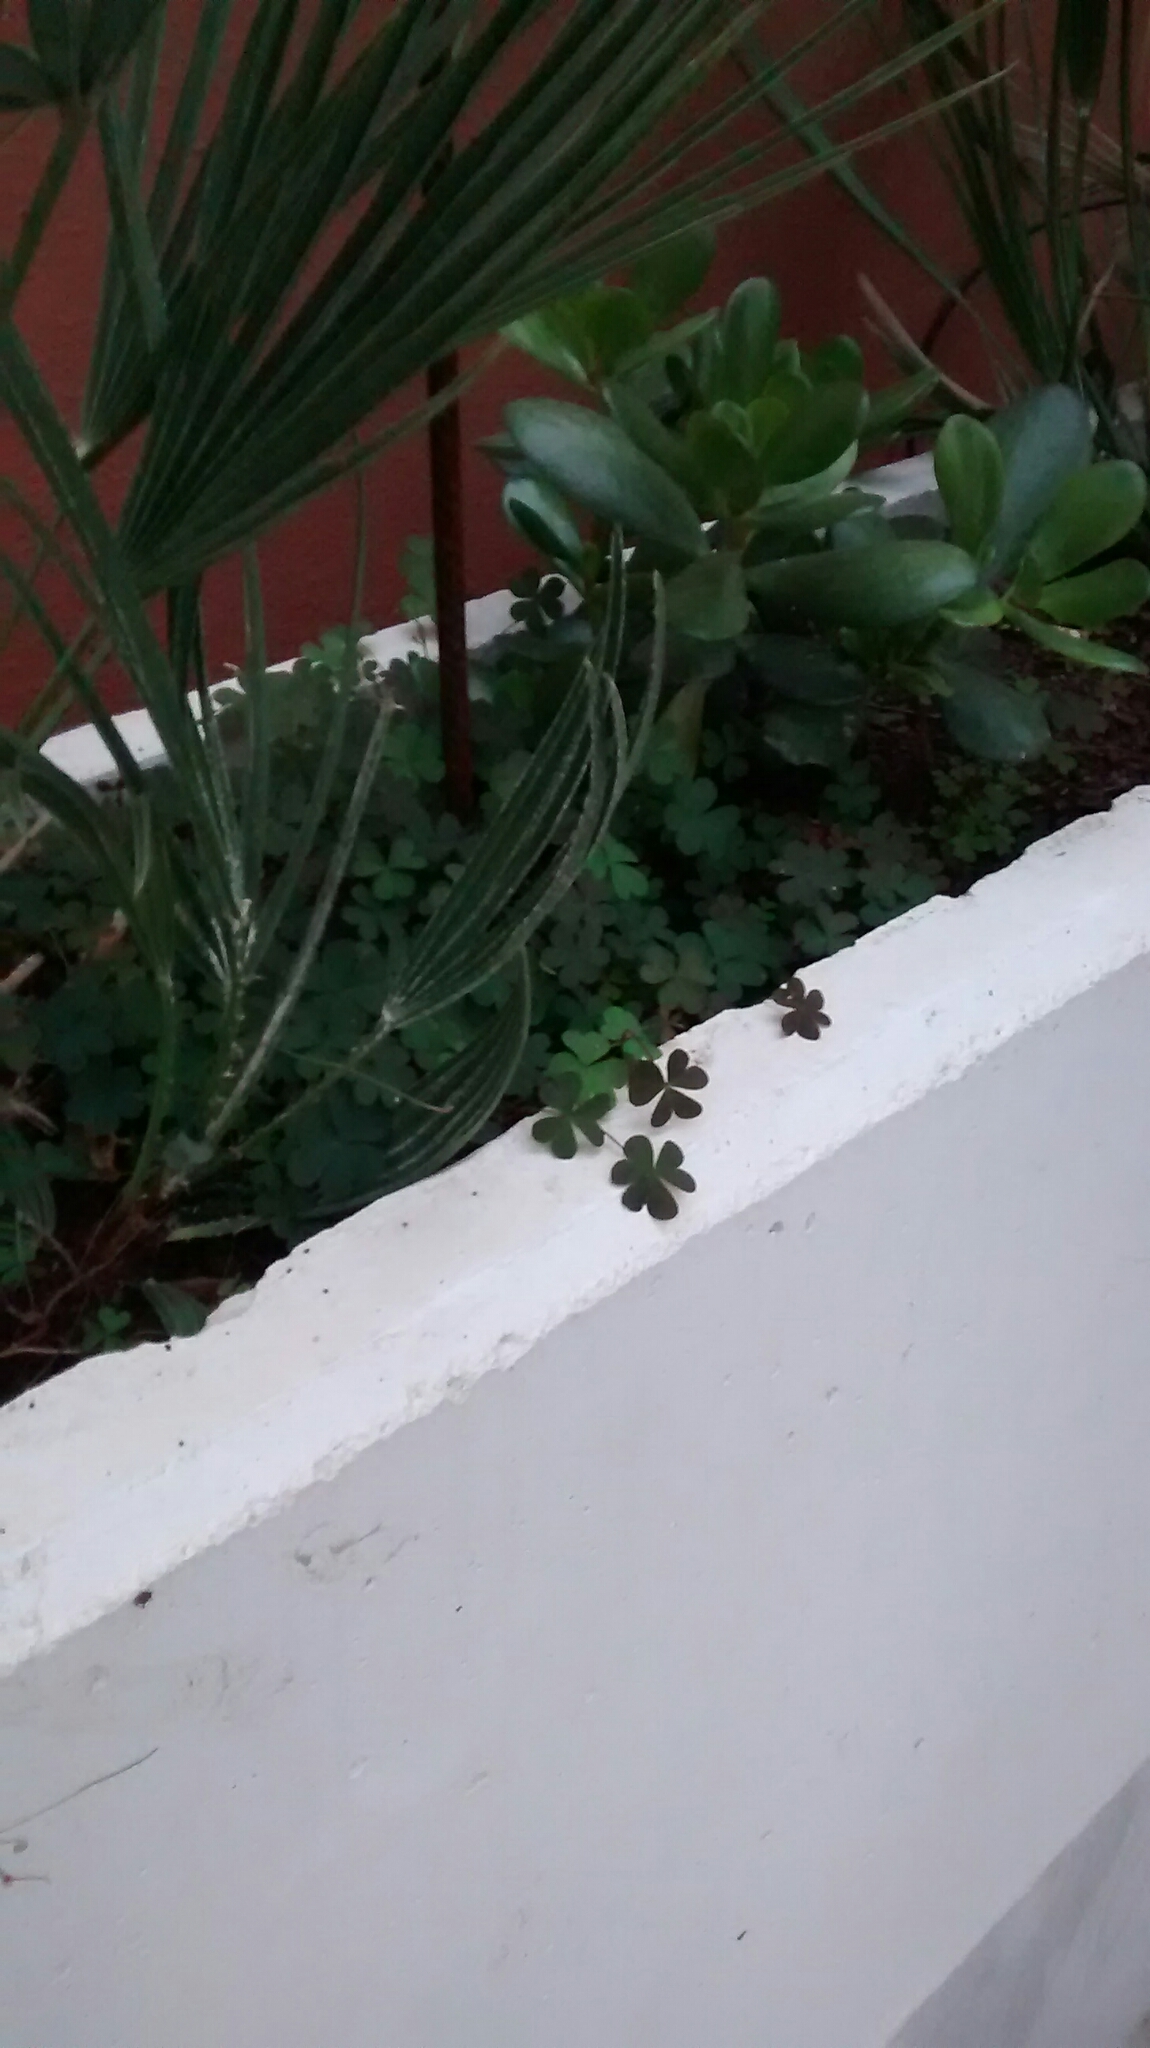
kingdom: Plantae
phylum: Tracheophyta
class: Magnoliopsida
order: Oxalidales
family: Oxalidaceae
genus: Oxalis
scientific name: Oxalis corniculata
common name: Procumbent yellow-sorrel
